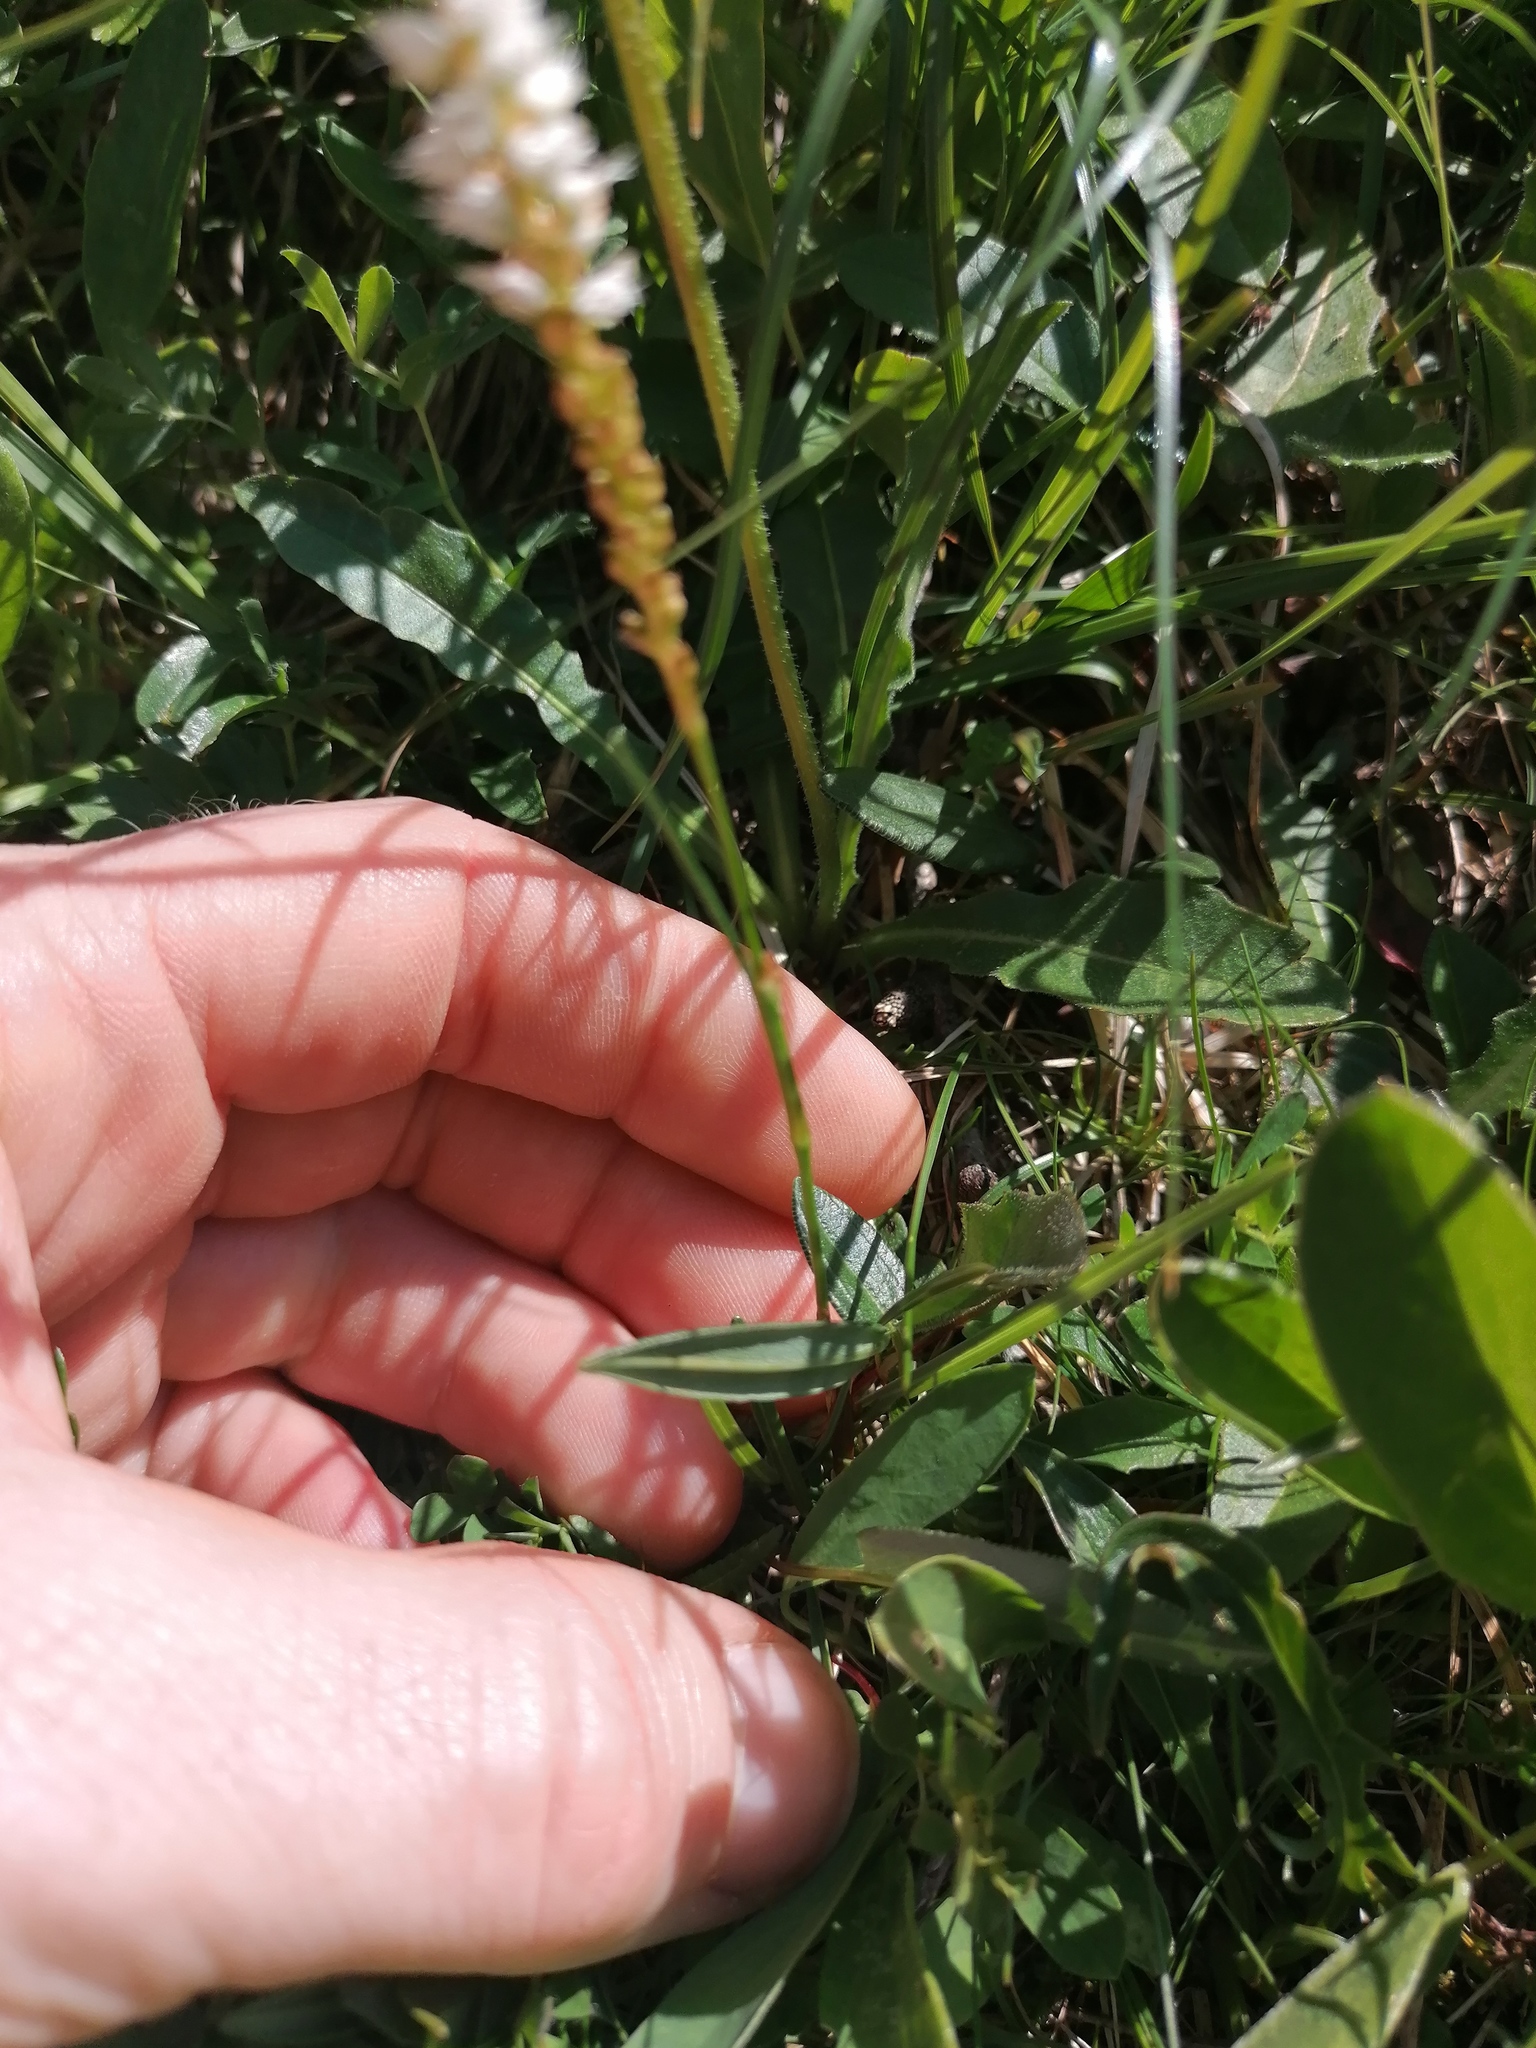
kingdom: Plantae
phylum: Tracheophyta
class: Magnoliopsida
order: Caryophyllales
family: Polygonaceae
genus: Bistorta
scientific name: Bistorta vivipara
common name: Alpine bistort
